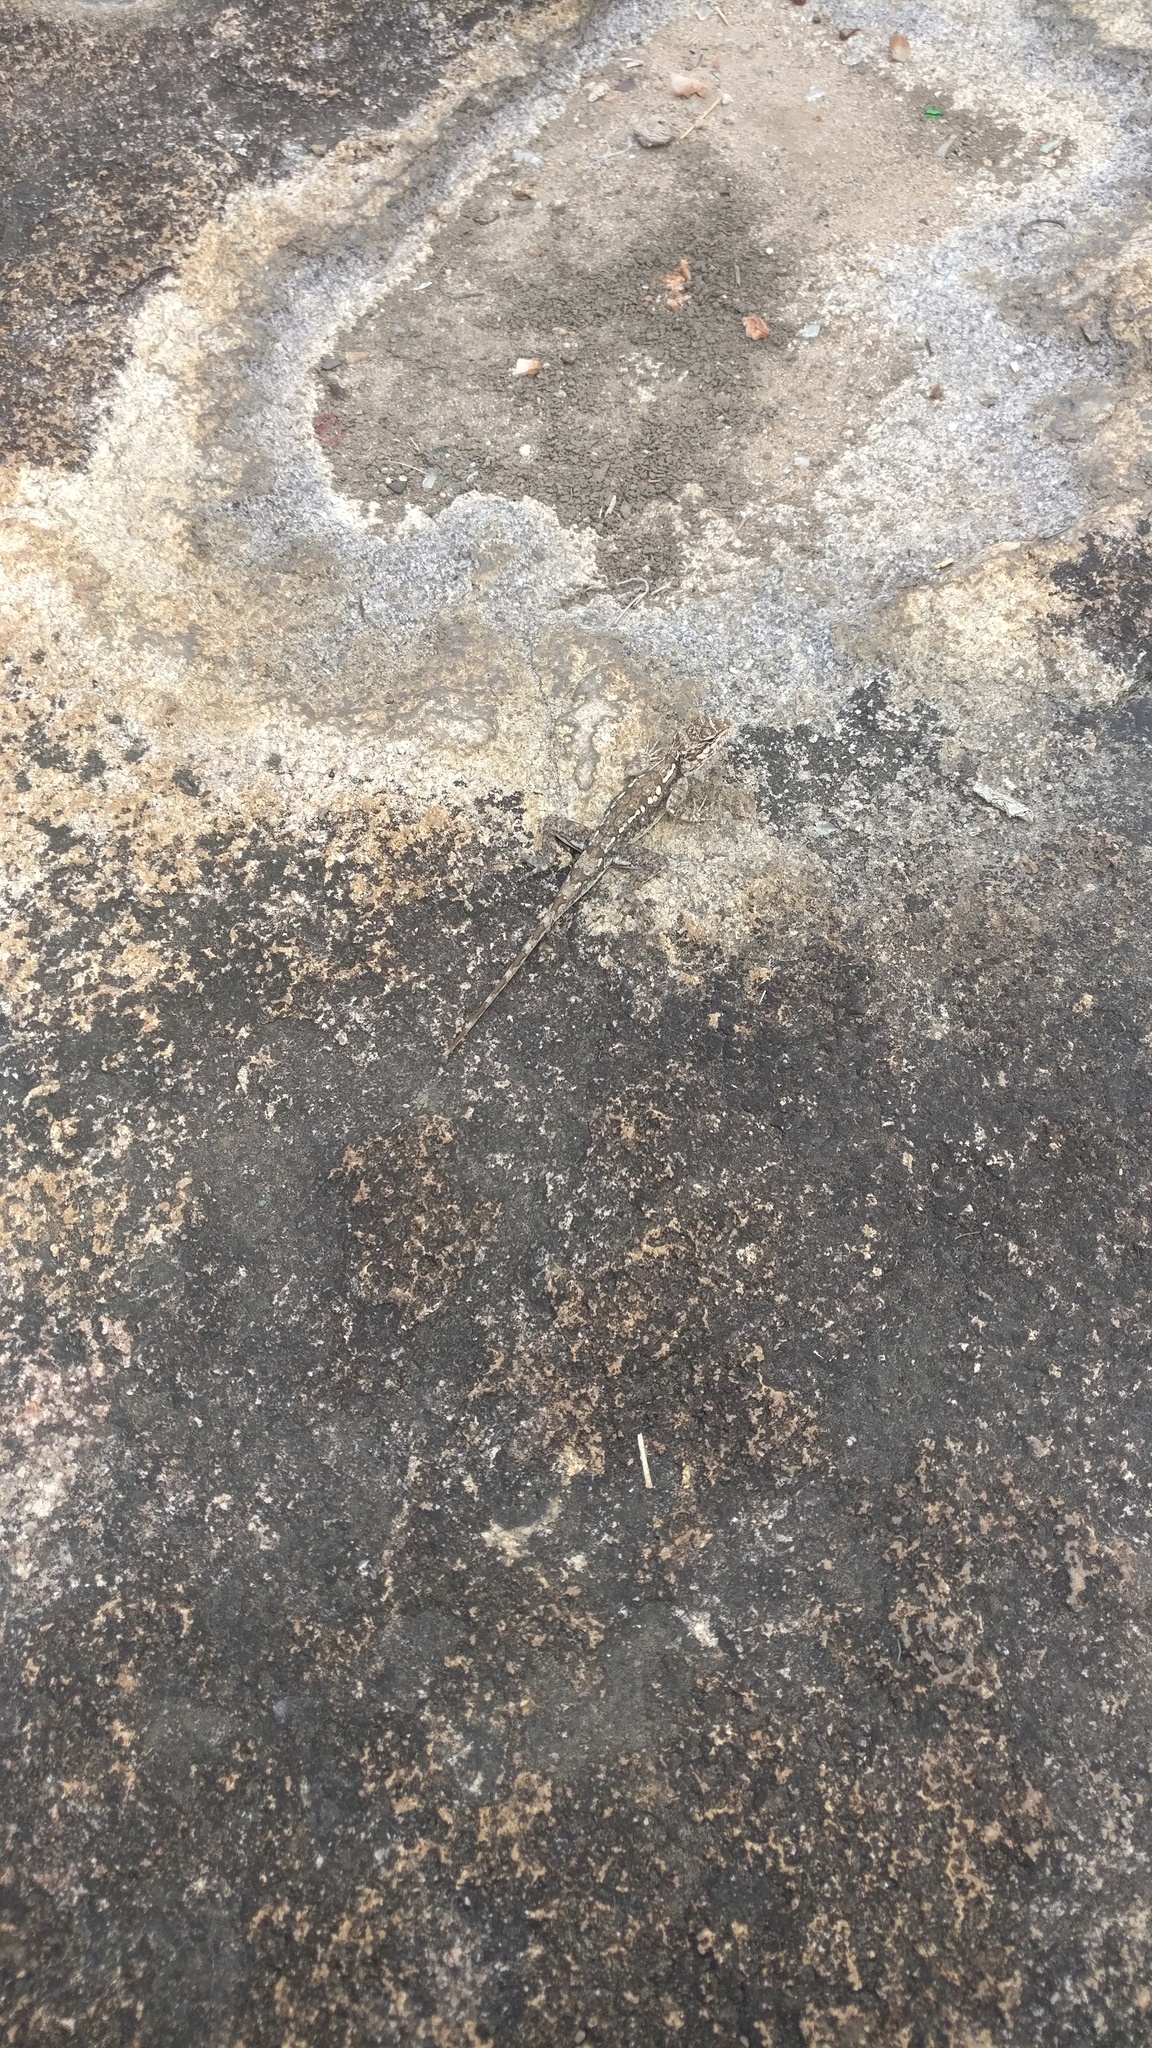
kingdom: Animalia
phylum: Chordata
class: Squamata
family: Agamidae
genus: Psammophilus
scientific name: Psammophilus dorsalis
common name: South indian rock agama
